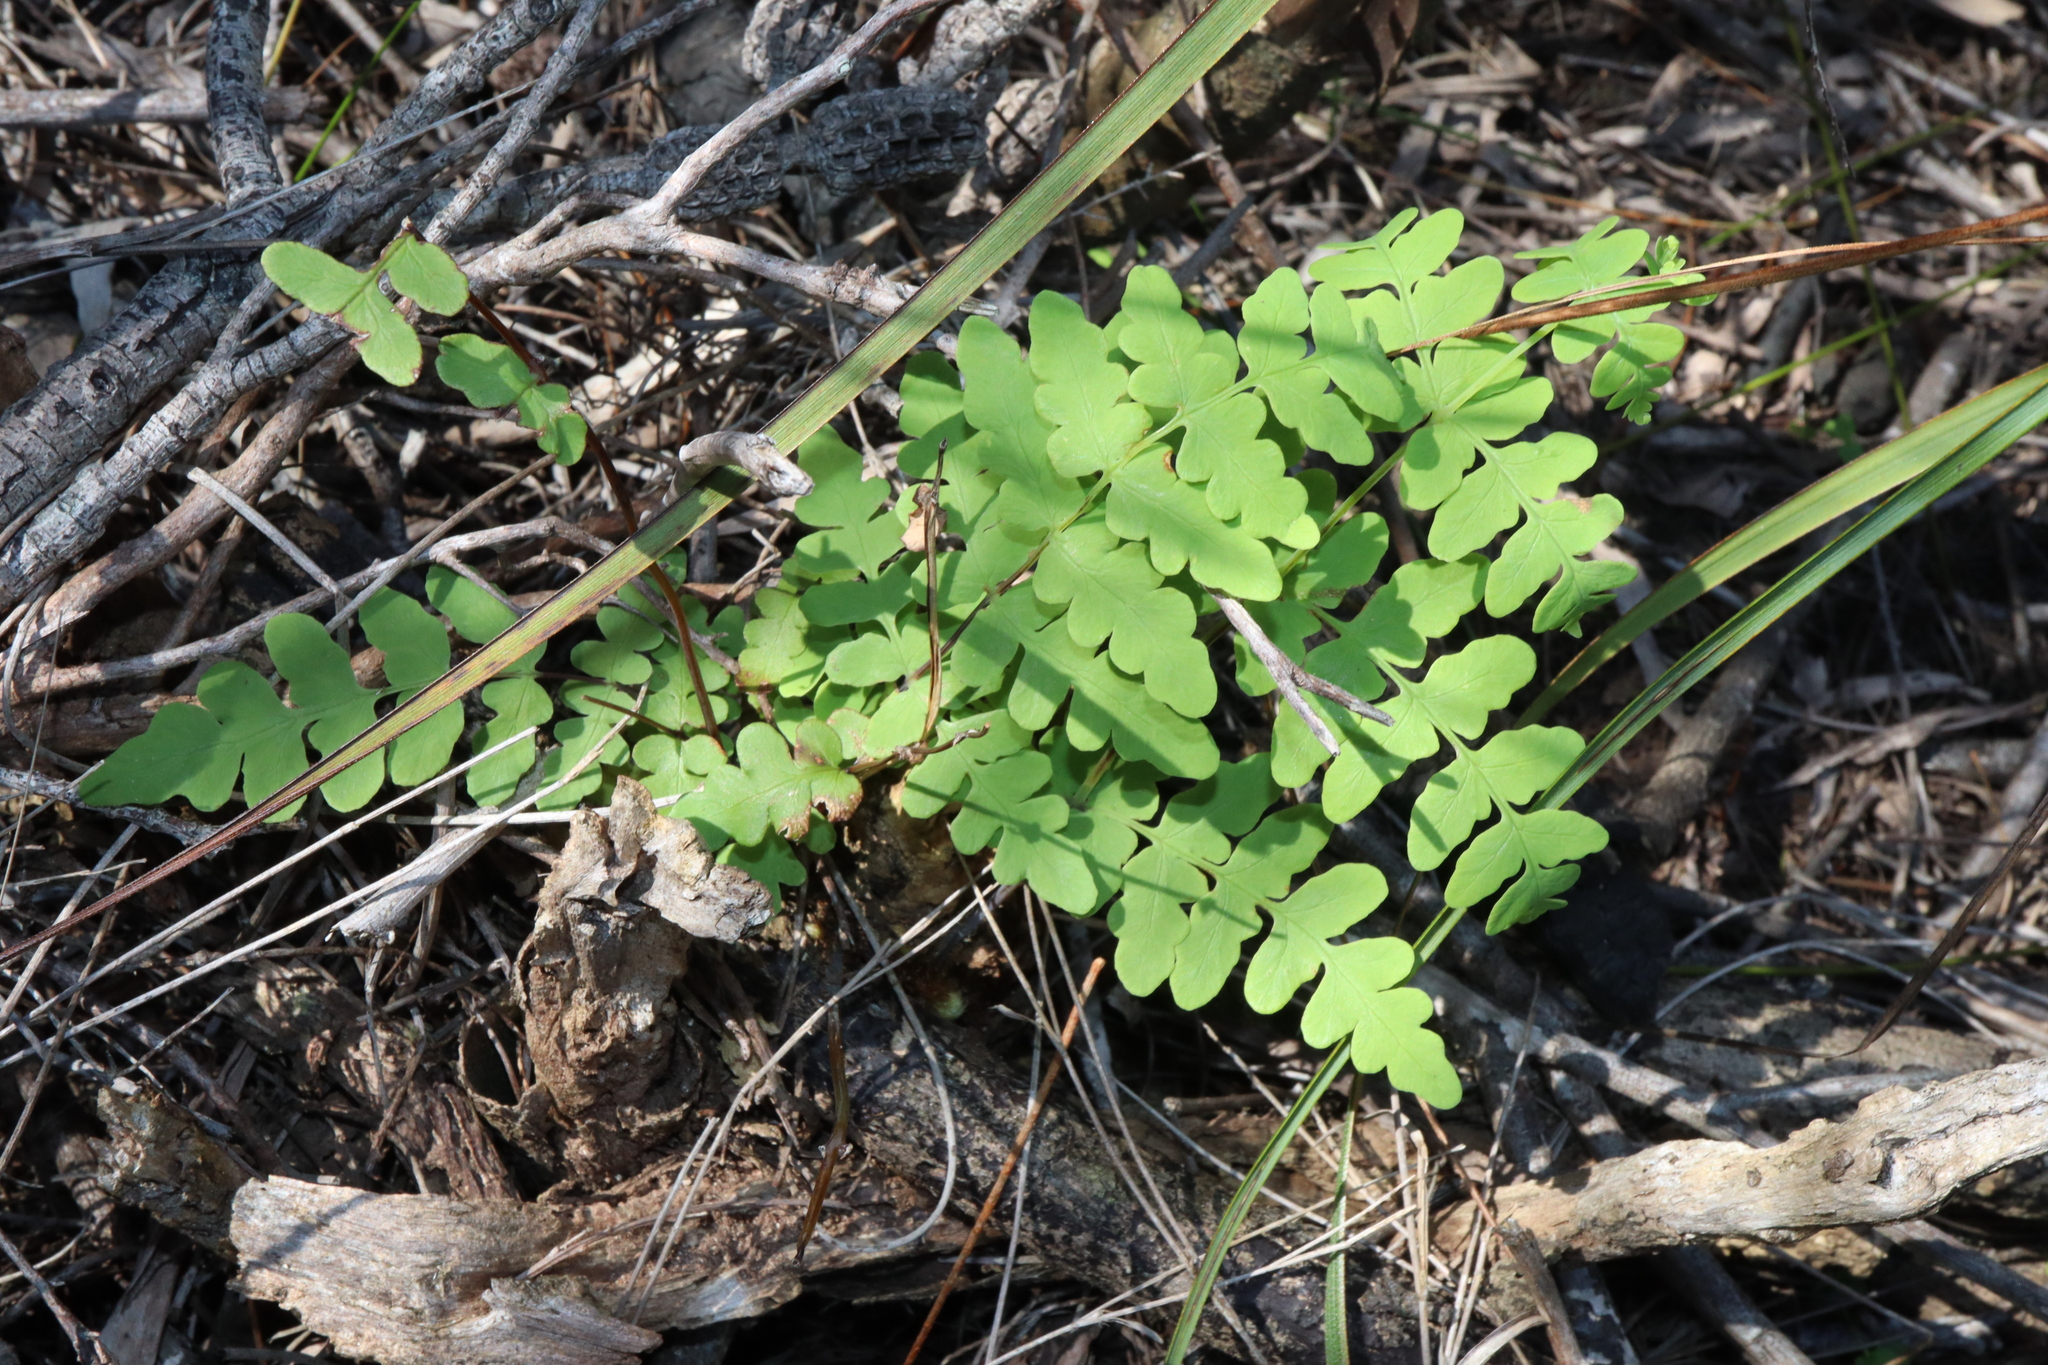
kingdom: Plantae
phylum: Tracheophyta
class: Polypodiopsida
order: Polypodiales
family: Dennstaedtiaceae
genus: Histiopteris
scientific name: Histiopteris incisa
